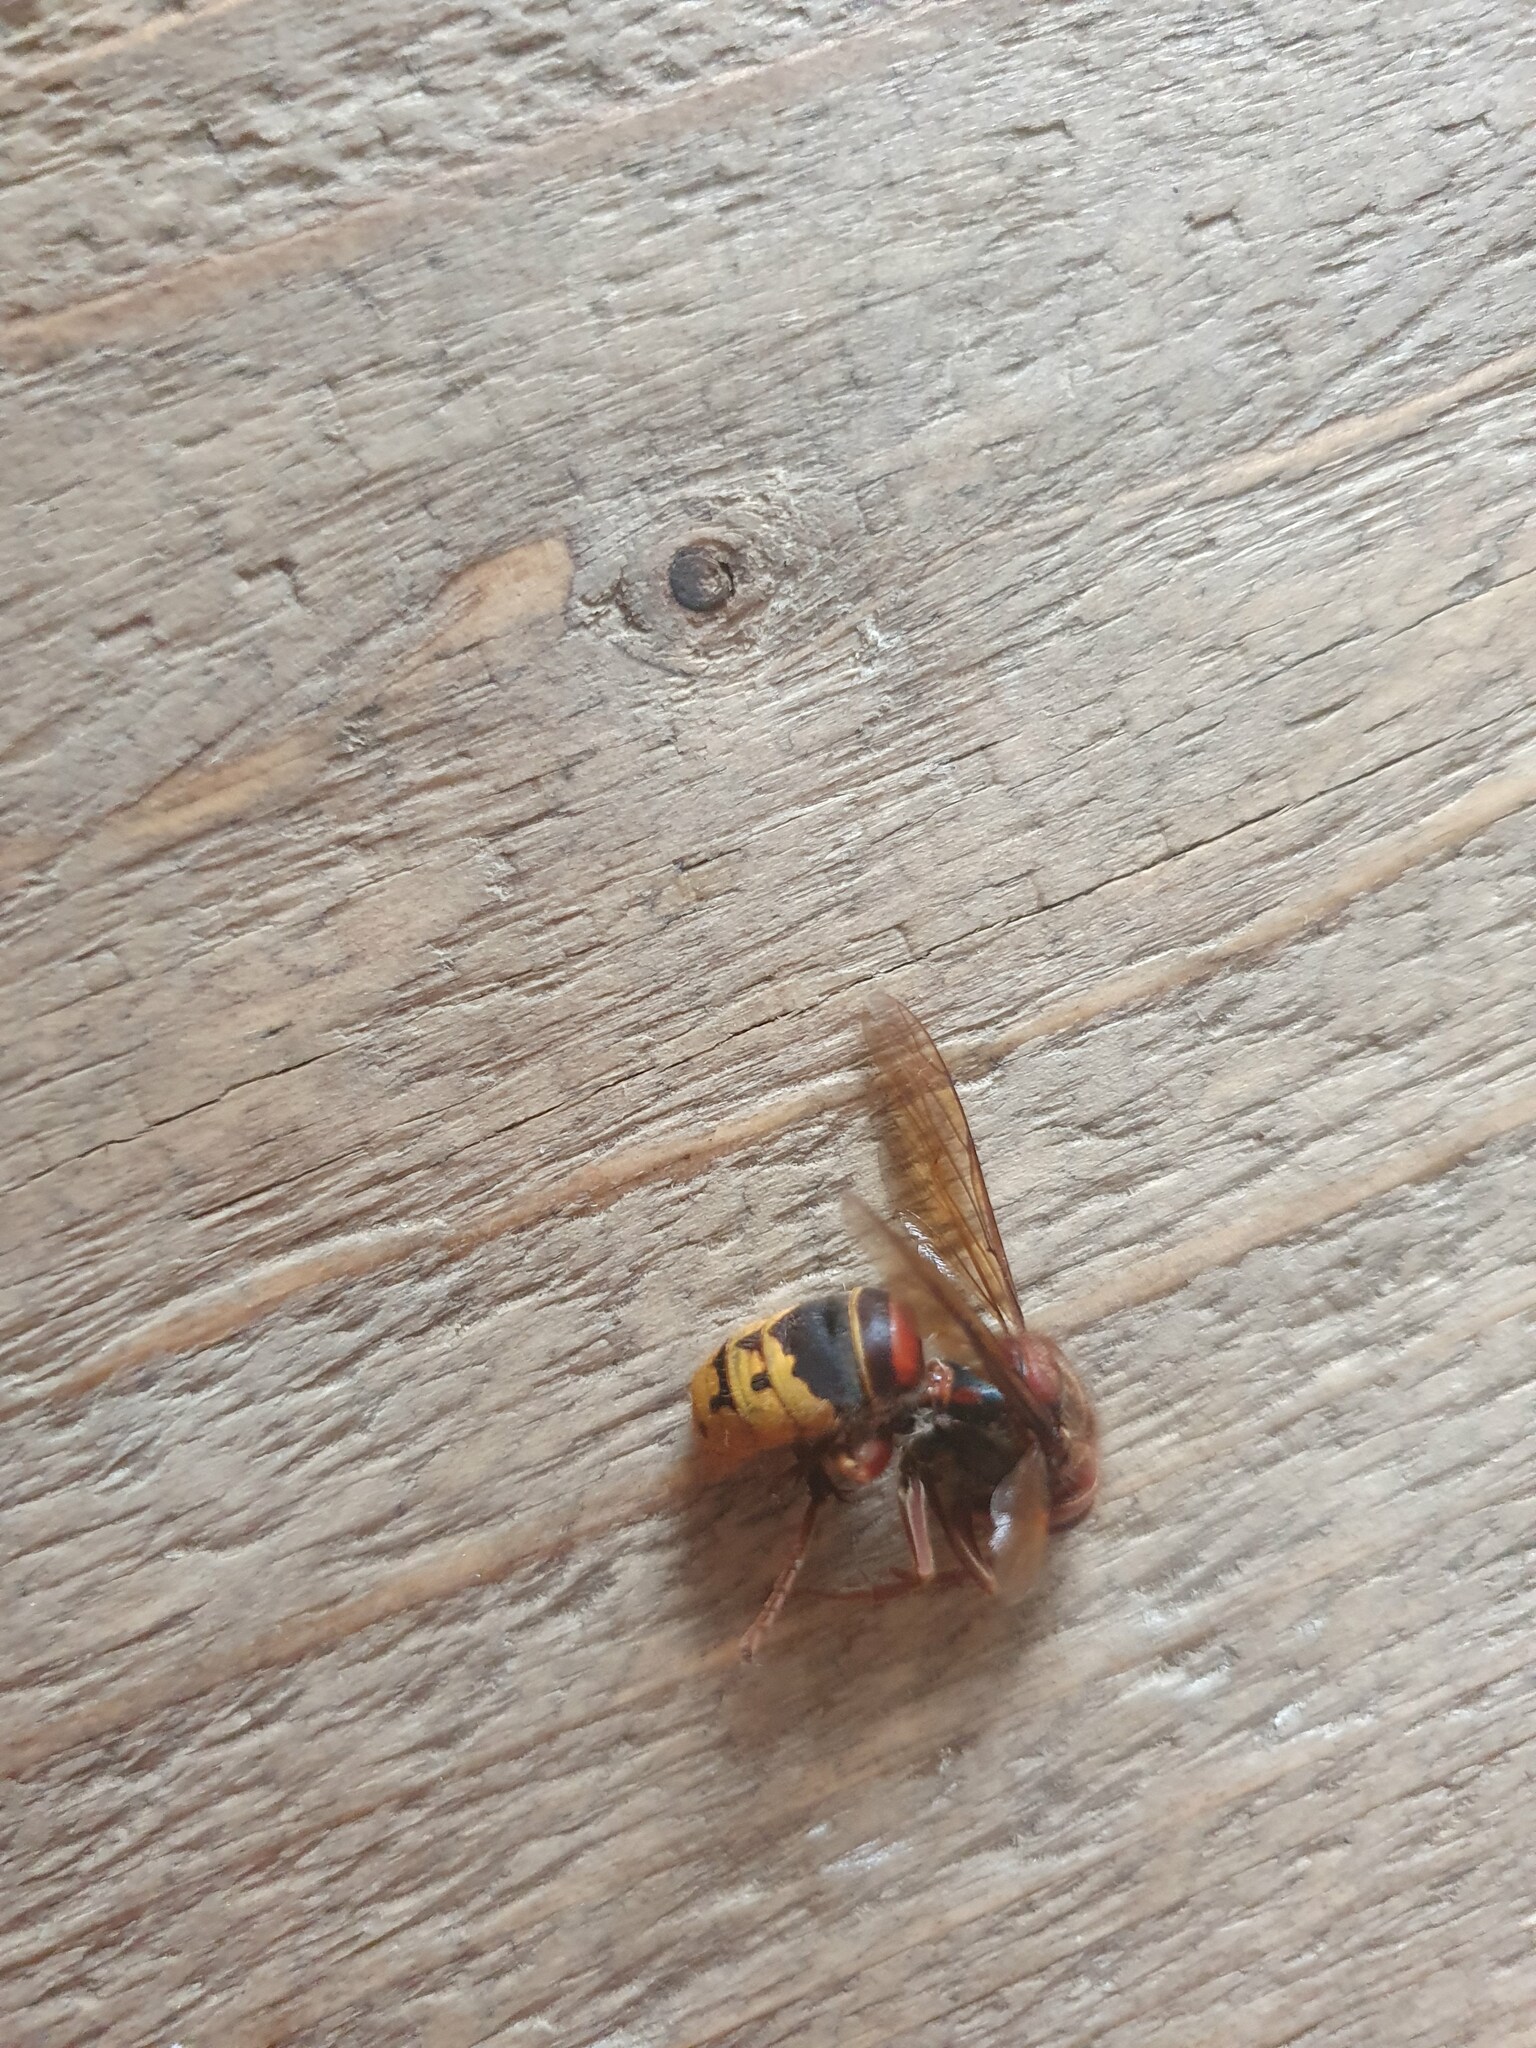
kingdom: Animalia
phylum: Arthropoda
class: Insecta
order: Hymenoptera
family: Vespidae
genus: Vespa
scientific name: Vespa crabro
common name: Hornet
